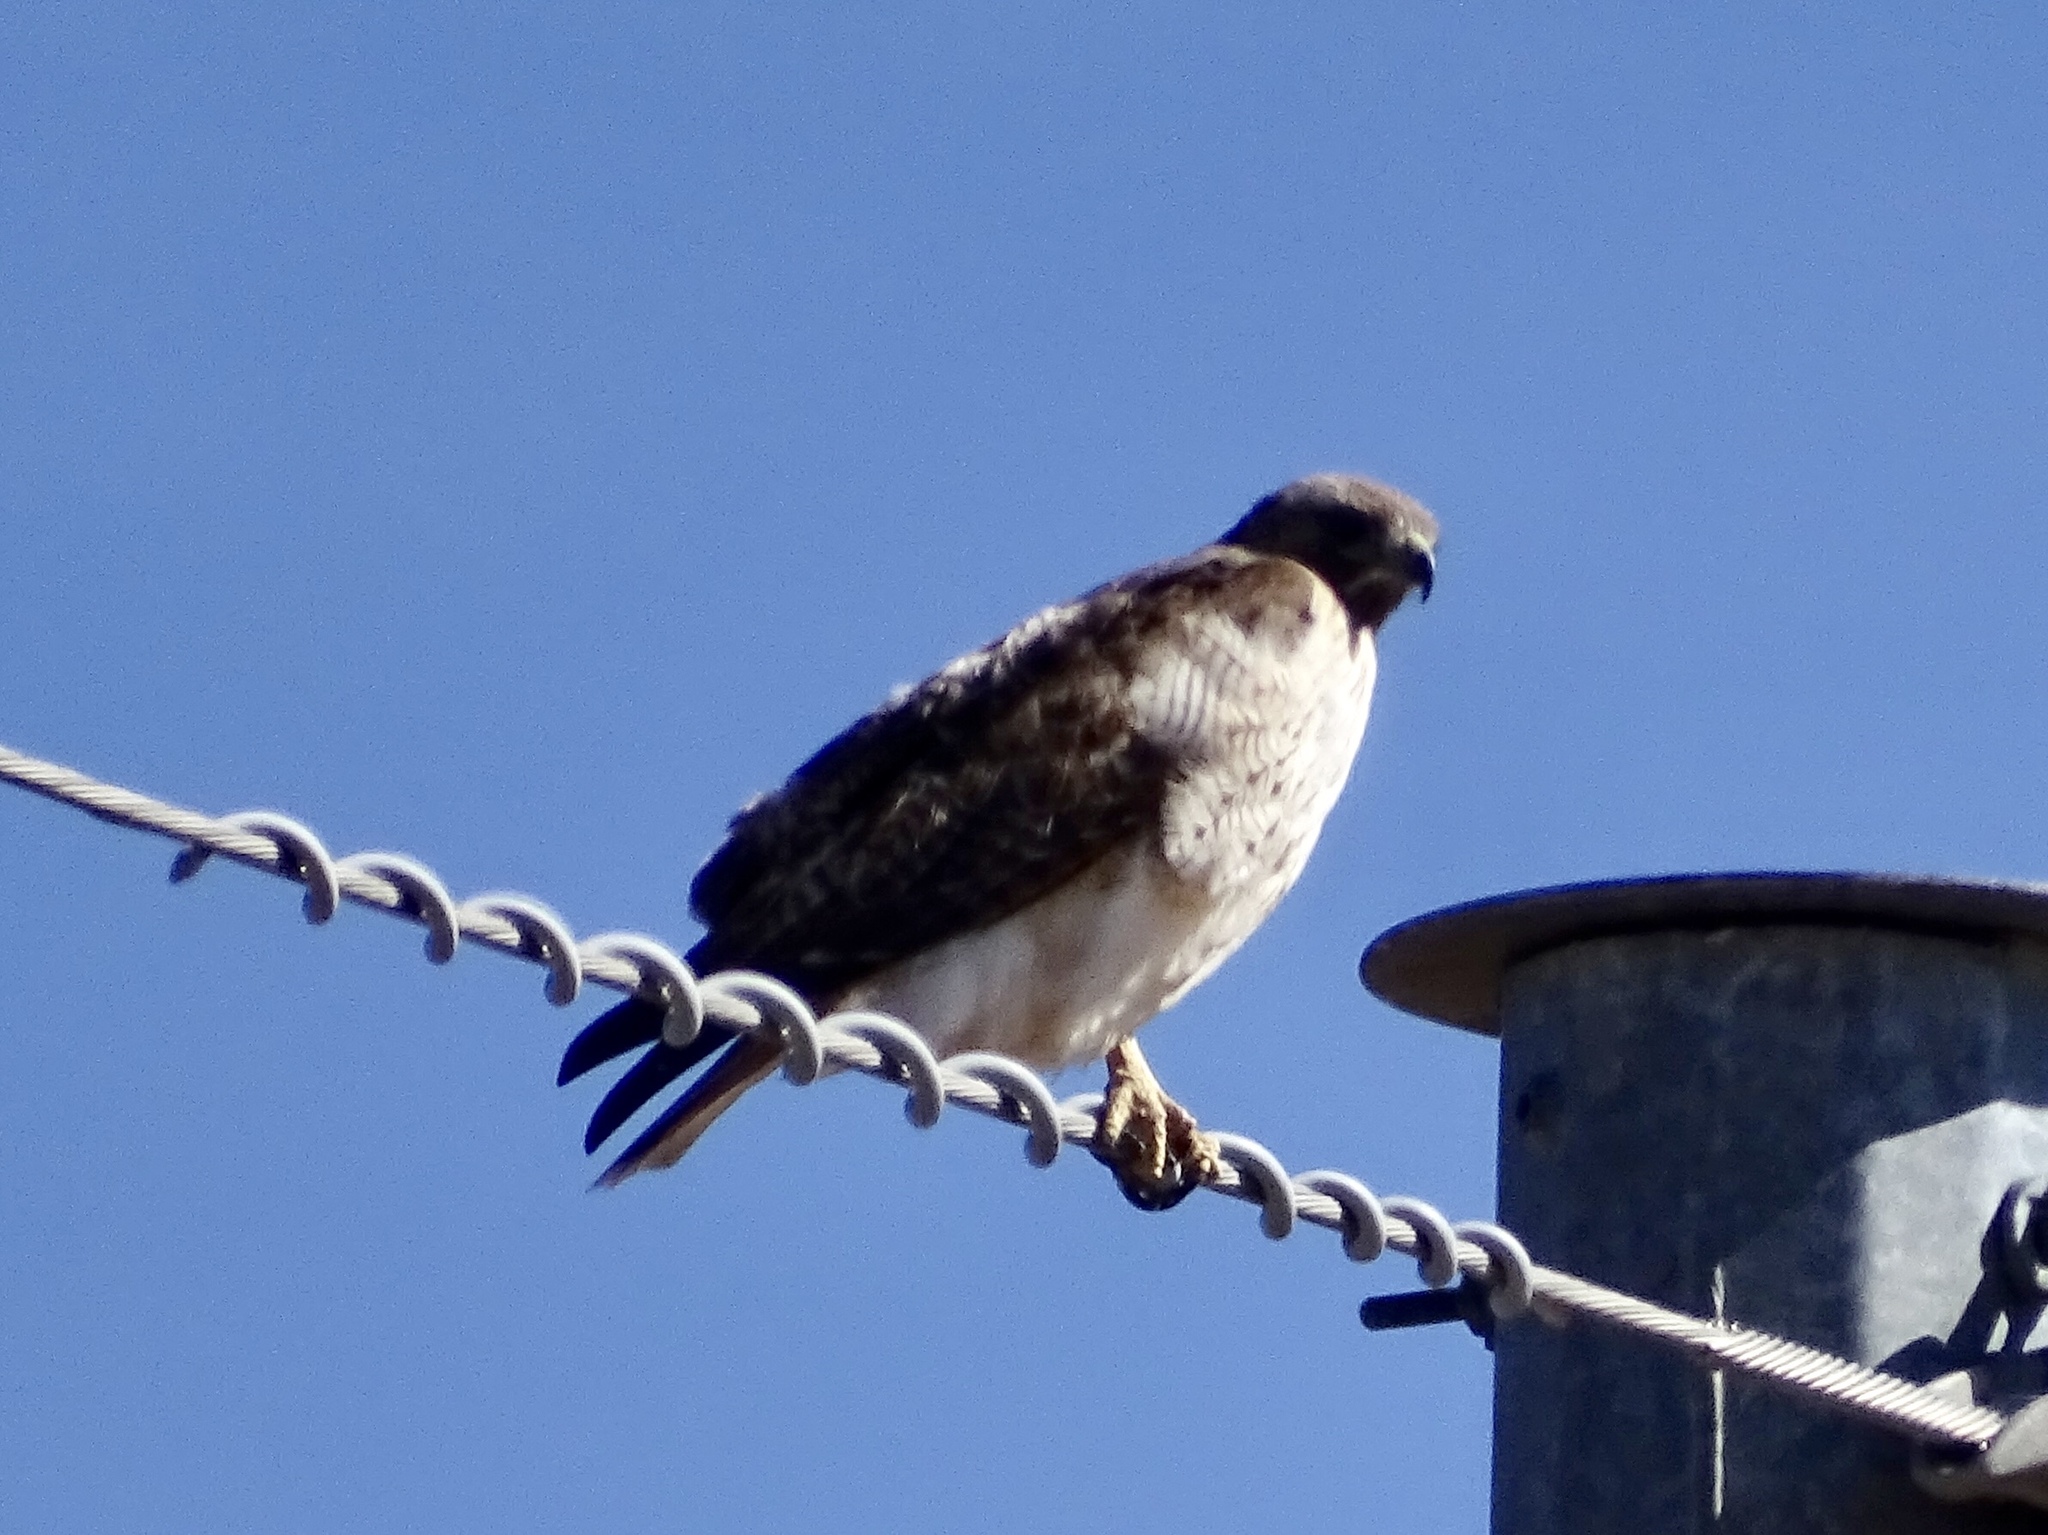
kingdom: Animalia
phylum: Chordata
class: Aves
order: Accipitriformes
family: Accipitridae
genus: Buteo
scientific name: Buteo jamaicensis
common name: Red-tailed hawk
